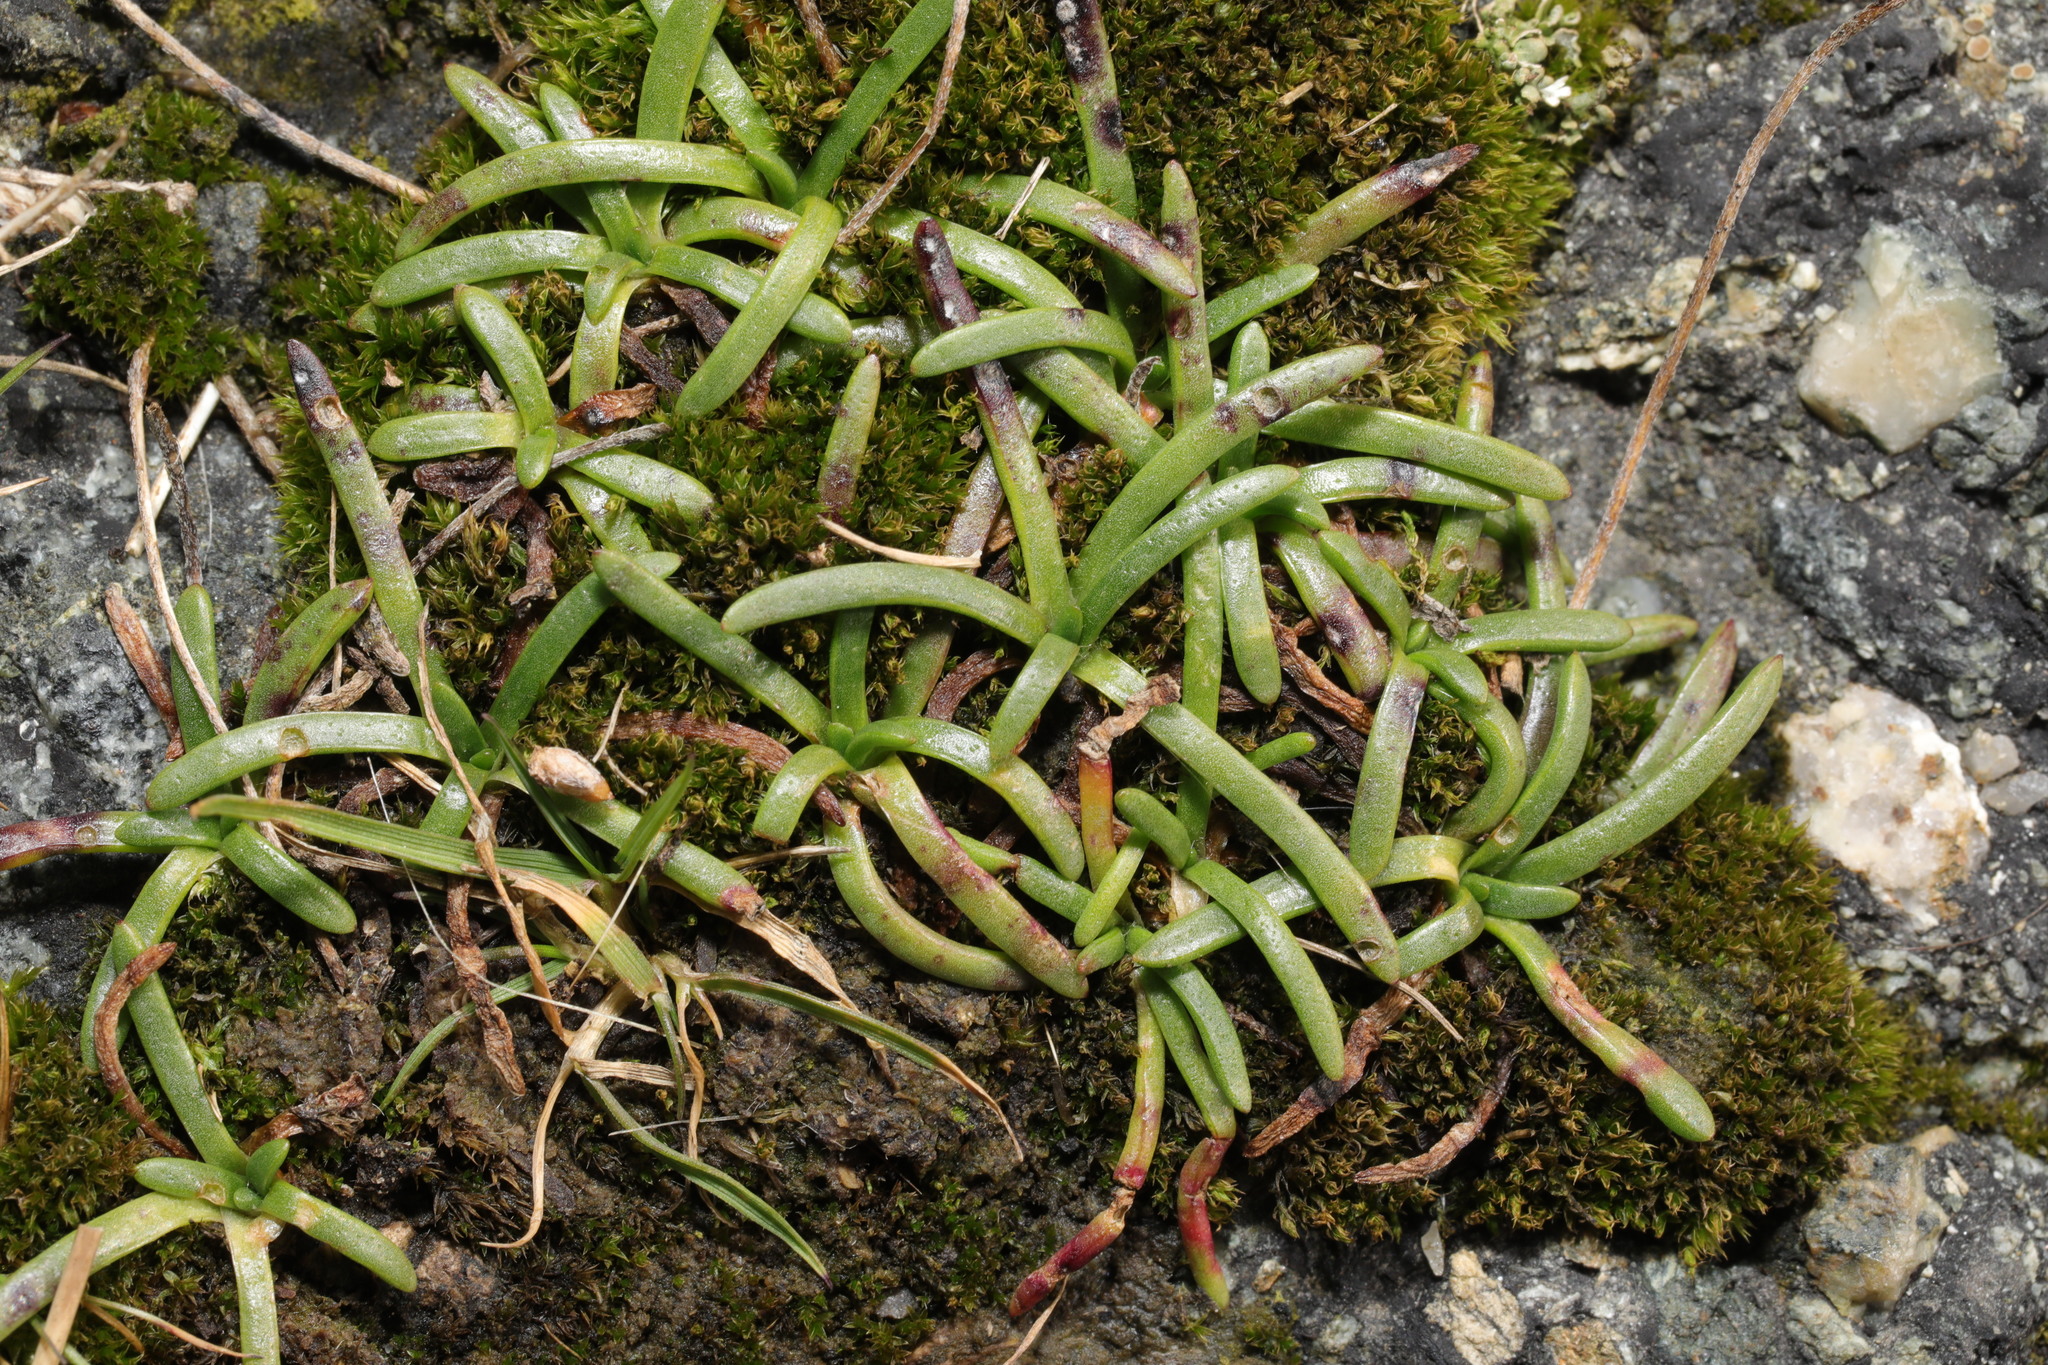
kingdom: Plantae
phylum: Tracheophyta
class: Magnoliopsida
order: Caryophyllales
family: Plumbaginaceae
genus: Armeria
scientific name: Armeria maritima
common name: Thrift
